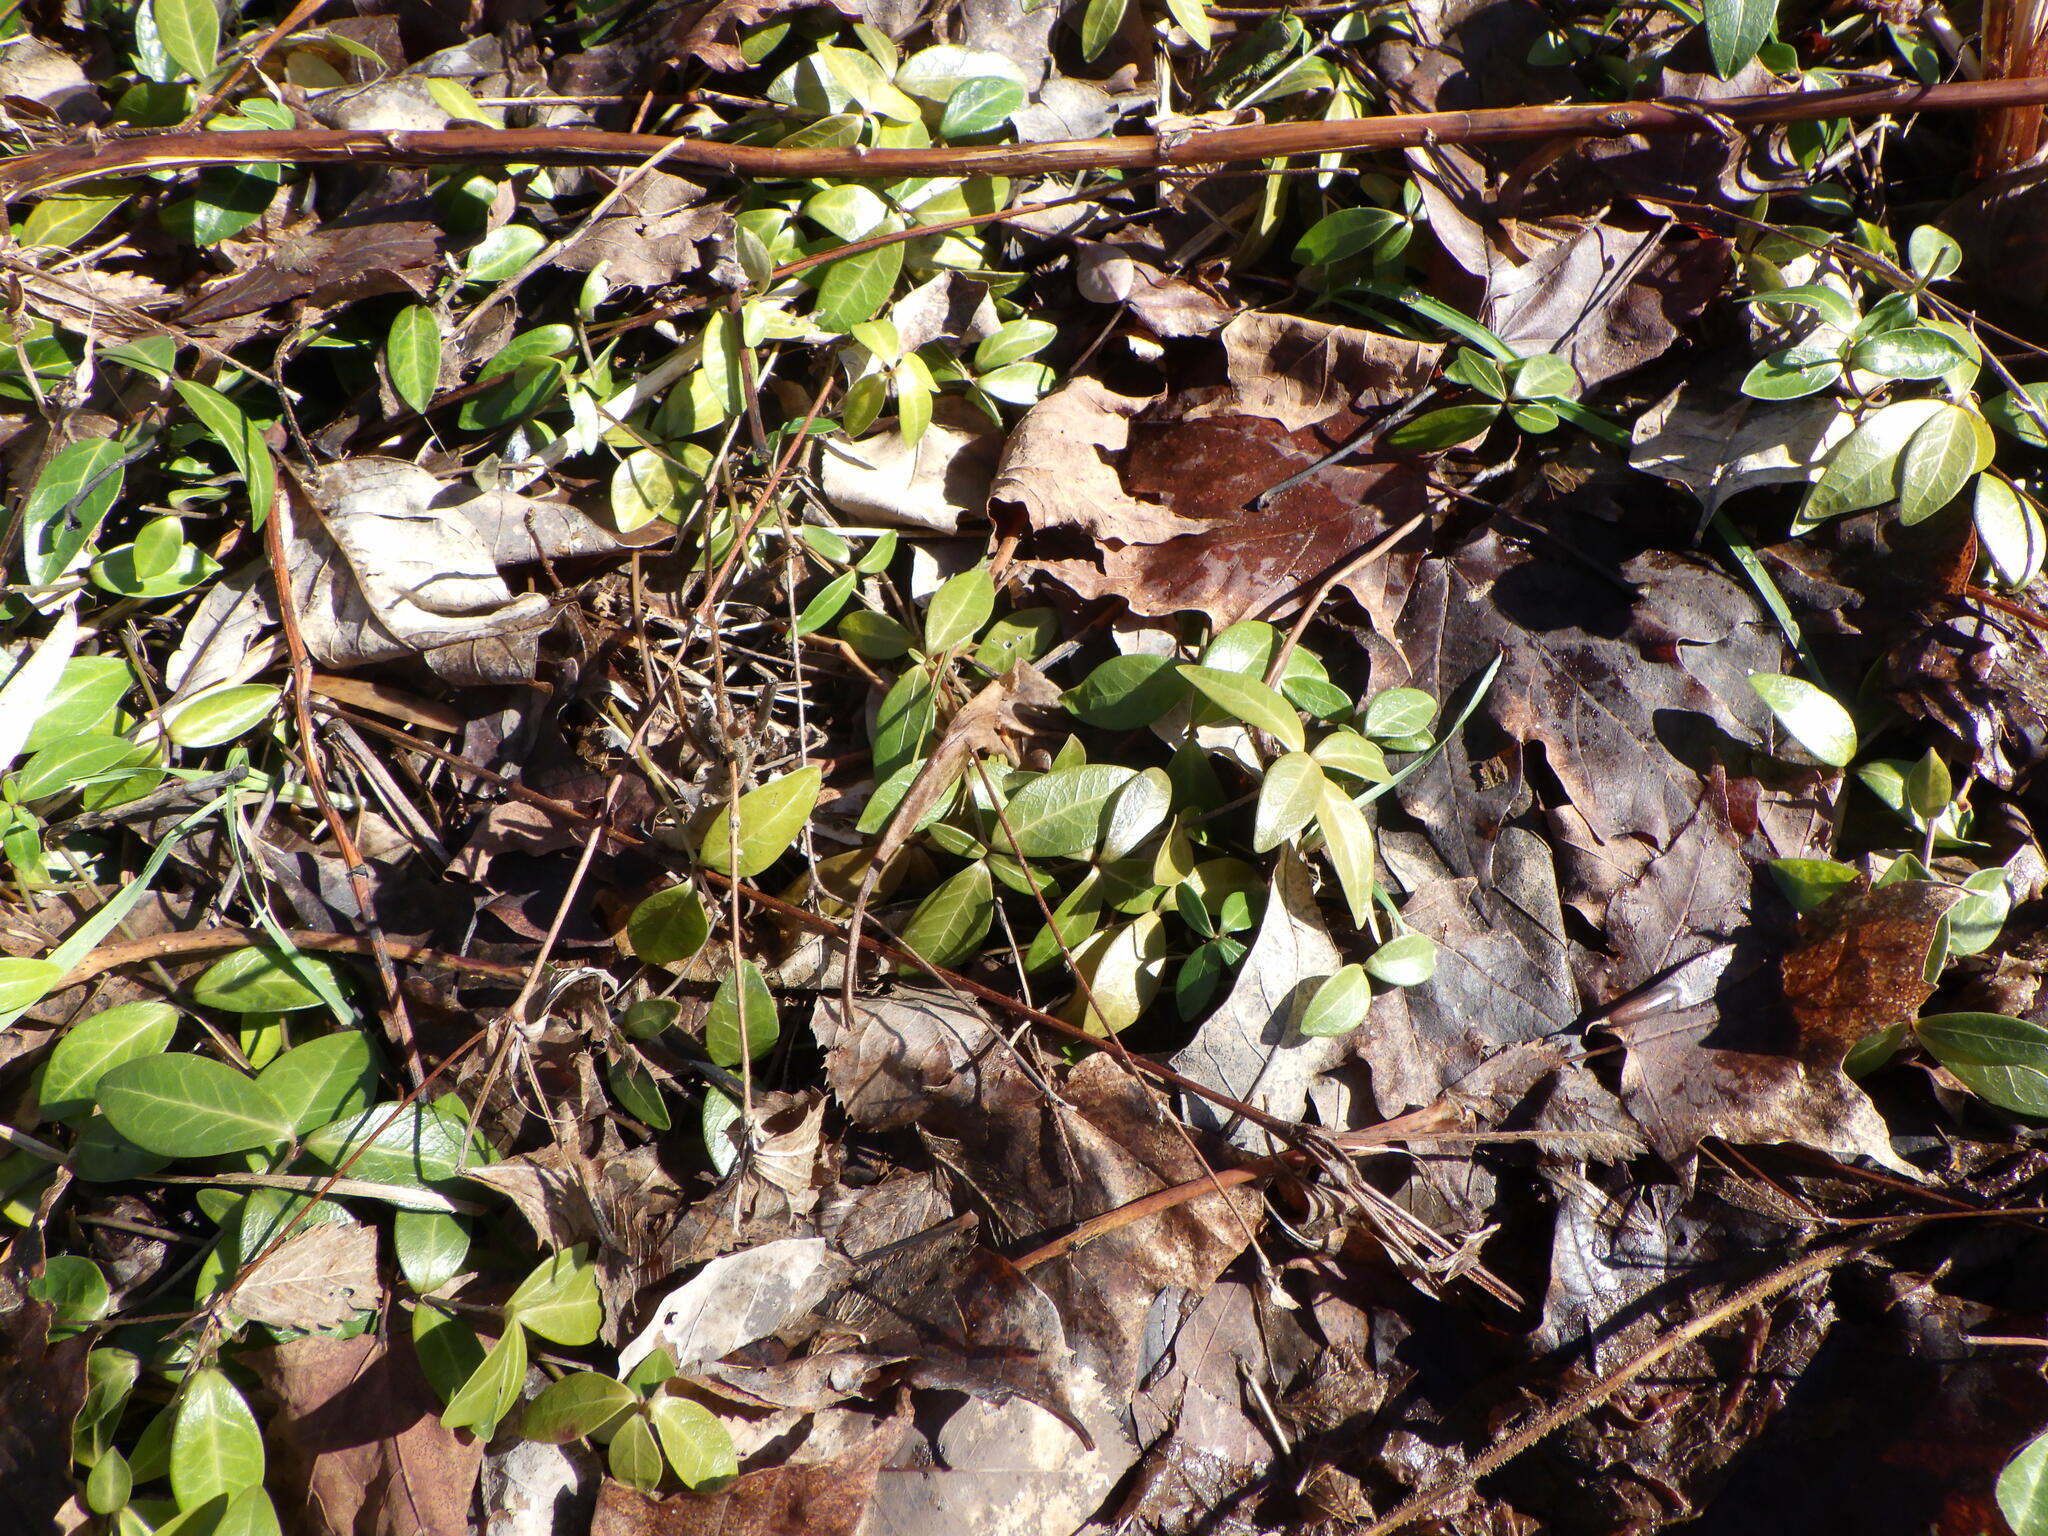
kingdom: Plantae
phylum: Tracheophyta
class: Magnoliopsida
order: Gentianales
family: Apocynaceae
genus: Vinca
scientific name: Vinca minor
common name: Lesser periwinkle
